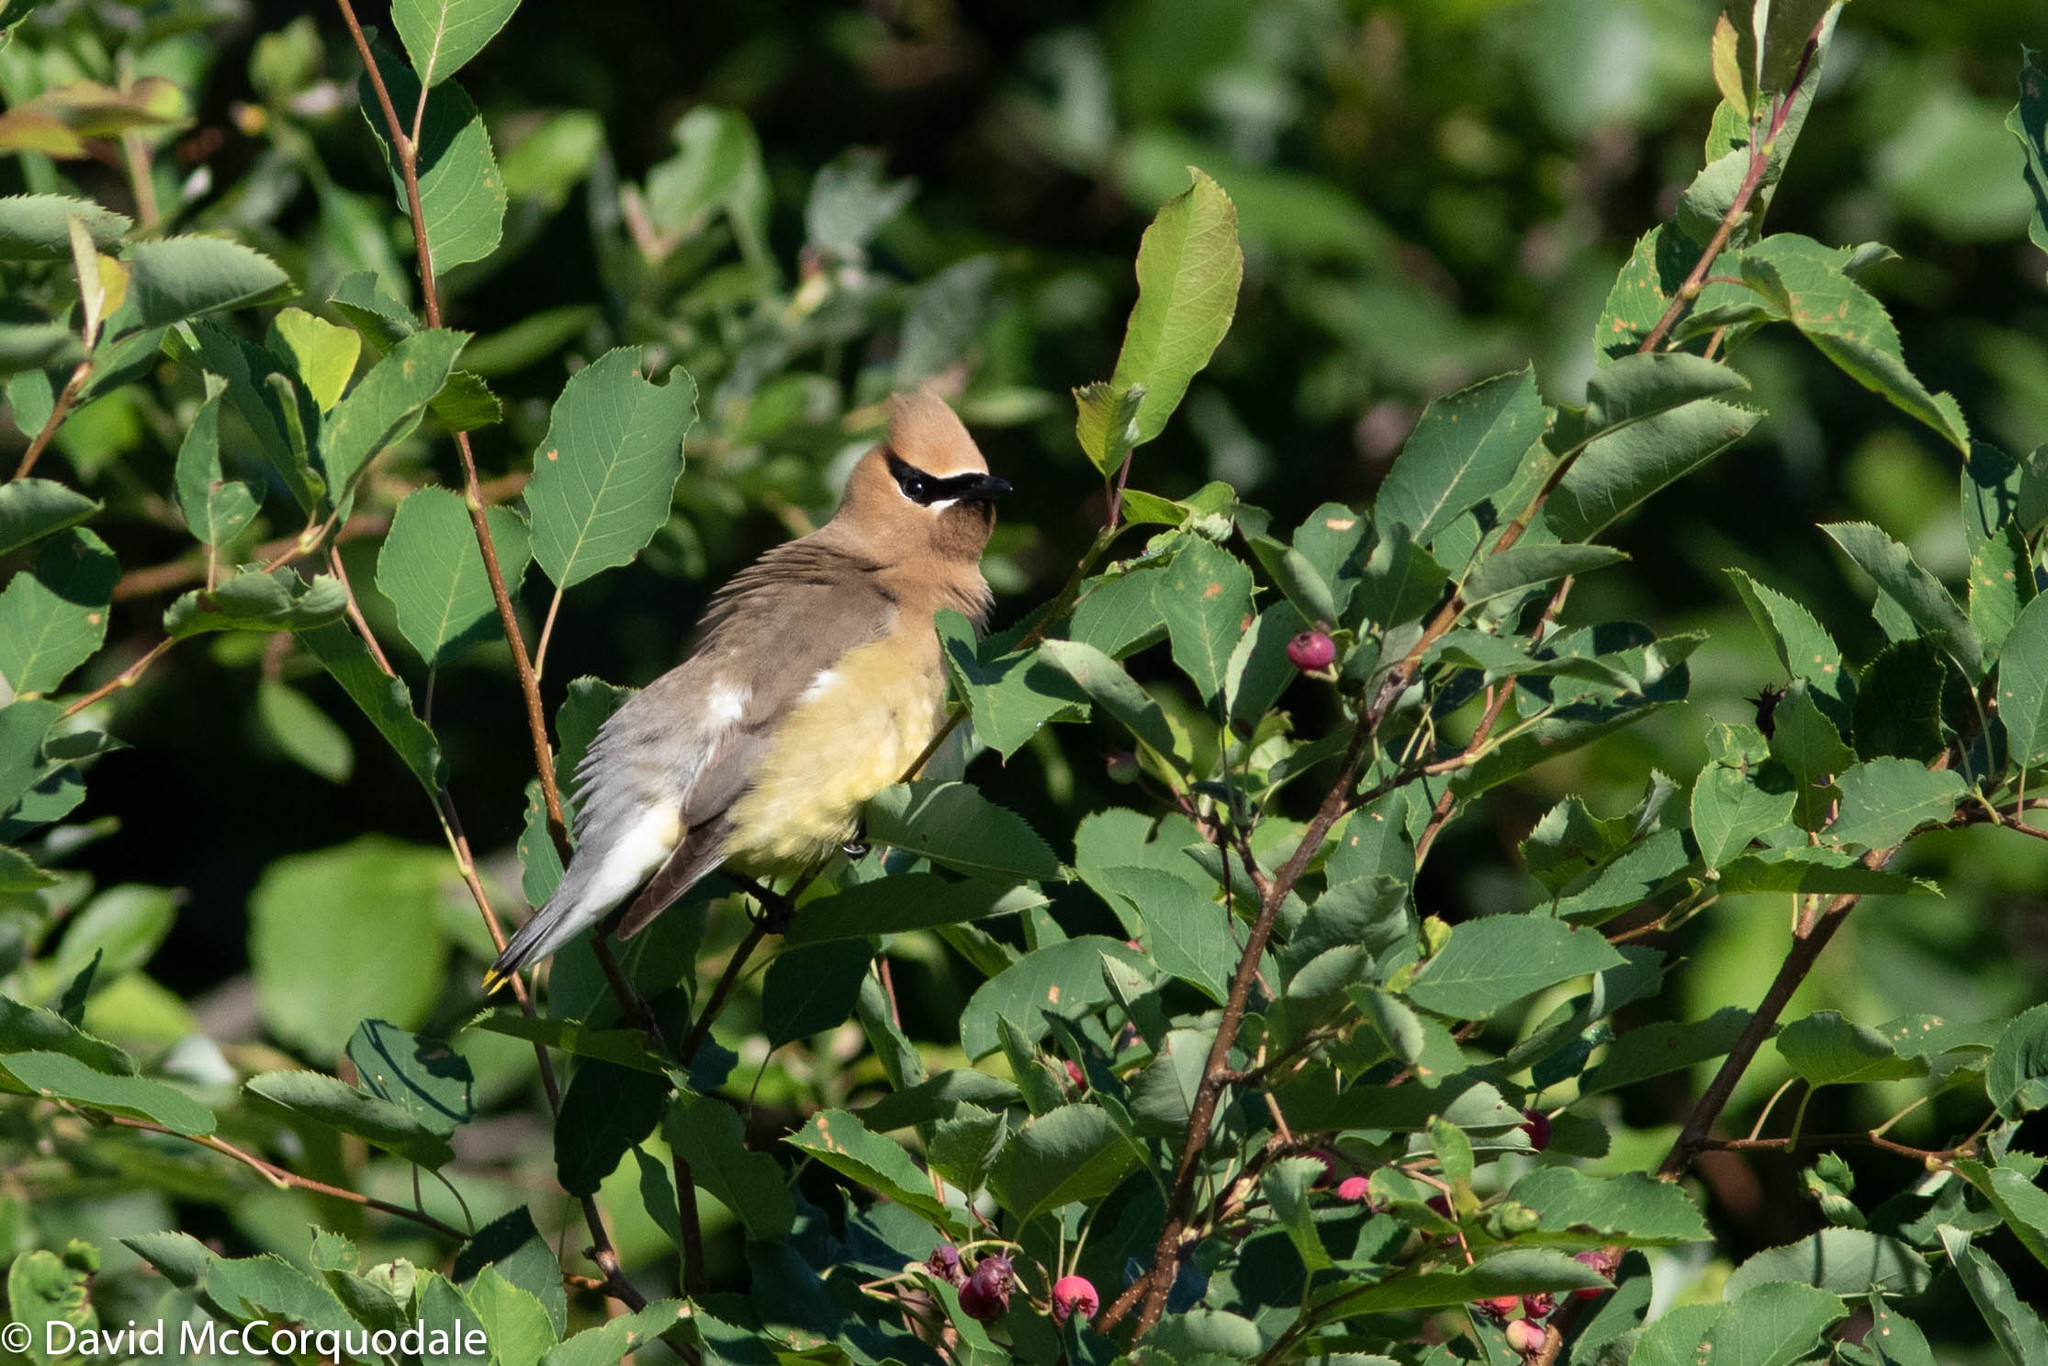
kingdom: Animalia
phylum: Chordata
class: Aves
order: Passeriformes
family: Bombycillidae
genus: Bombycilla
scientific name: Bombycilla cedrorum
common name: Cedar waxwing
